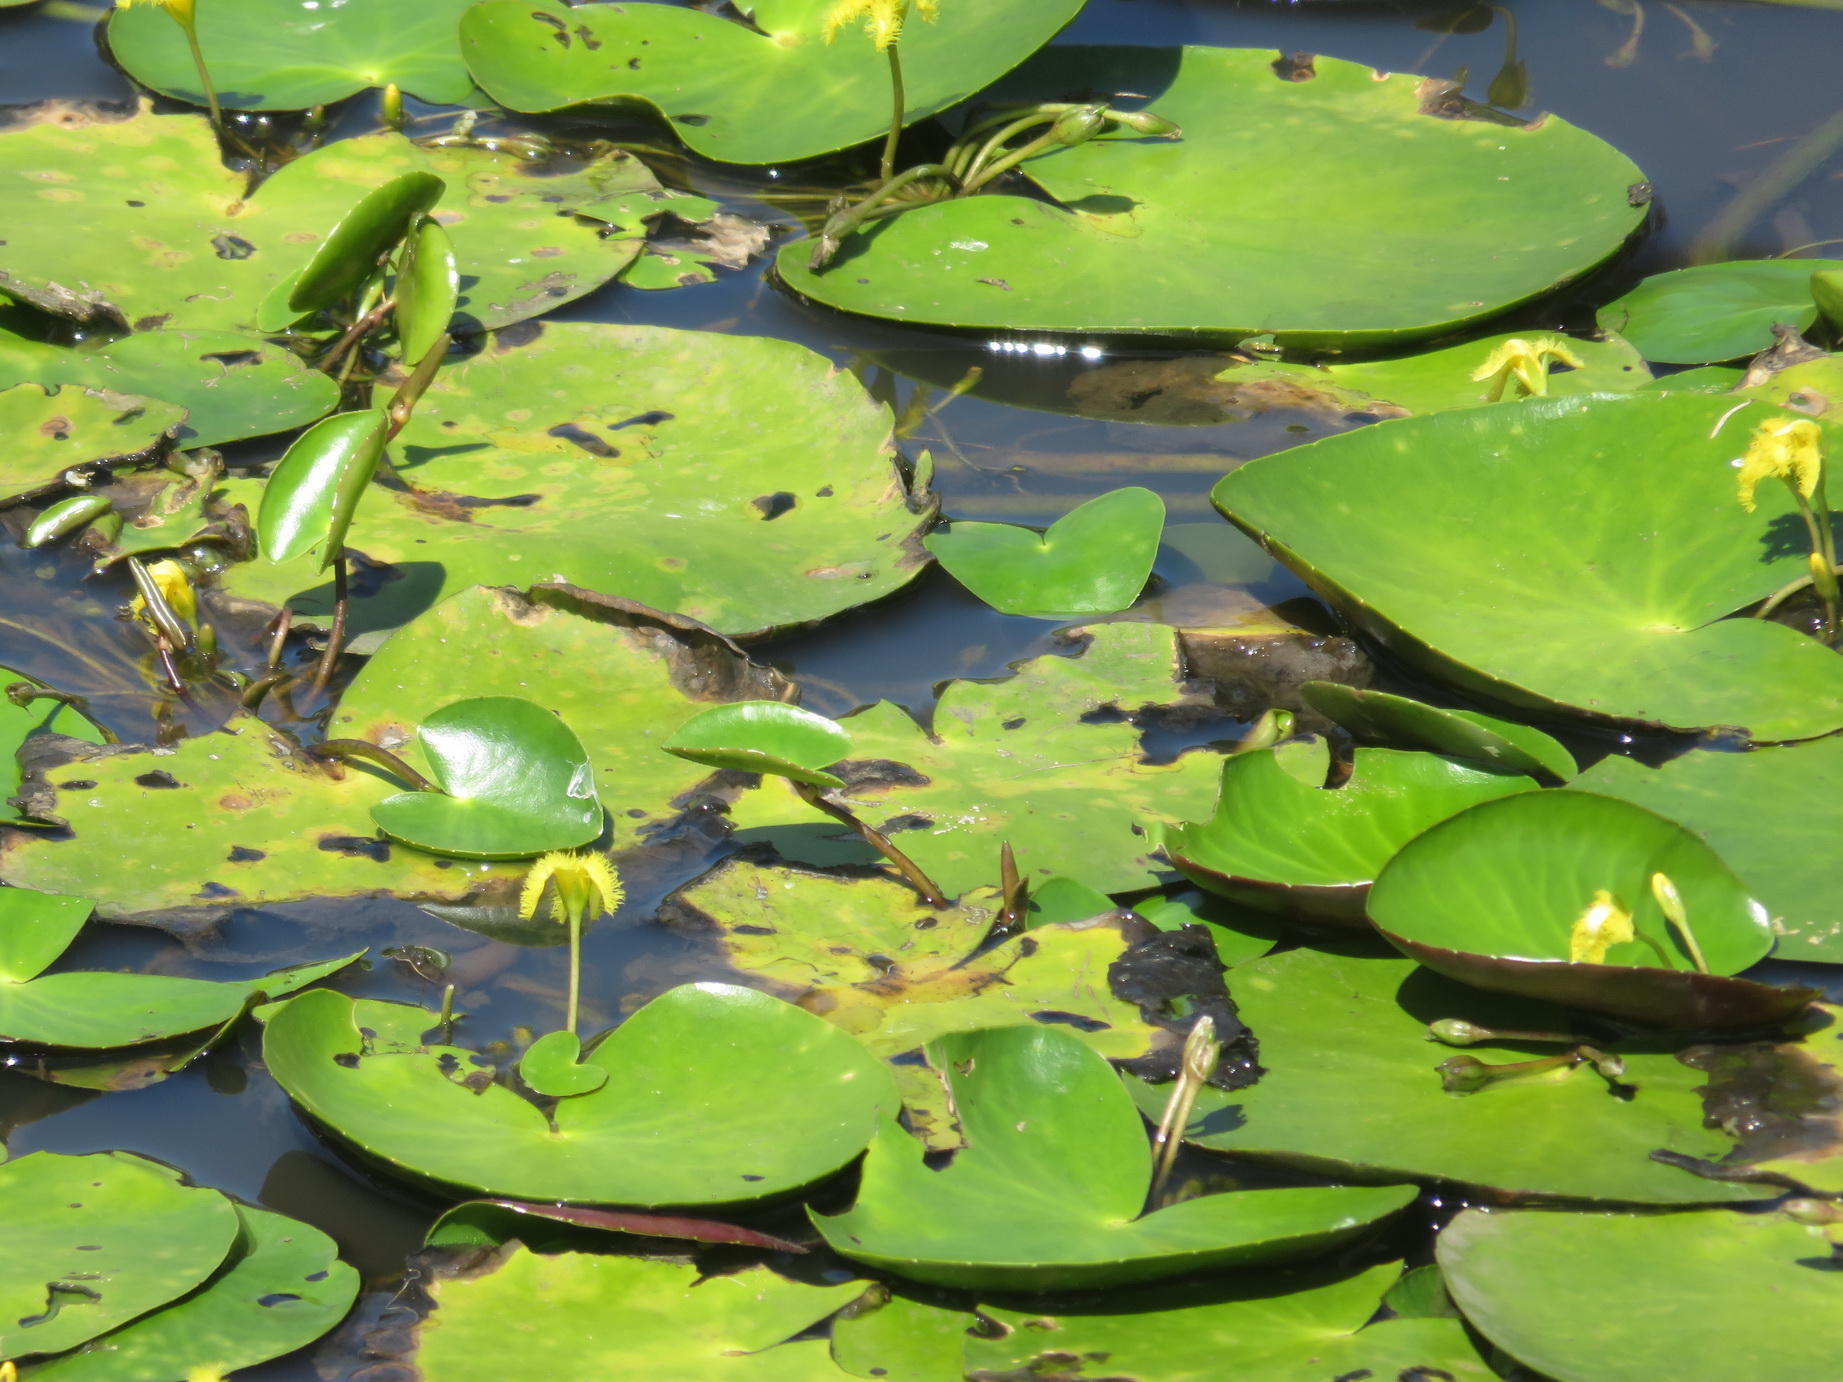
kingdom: Plantae
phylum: Tracheophyta
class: Magnoliopsida
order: Asterales
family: Menyanthaceae
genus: Nymphoides
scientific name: Nymphoides thunbergiana
